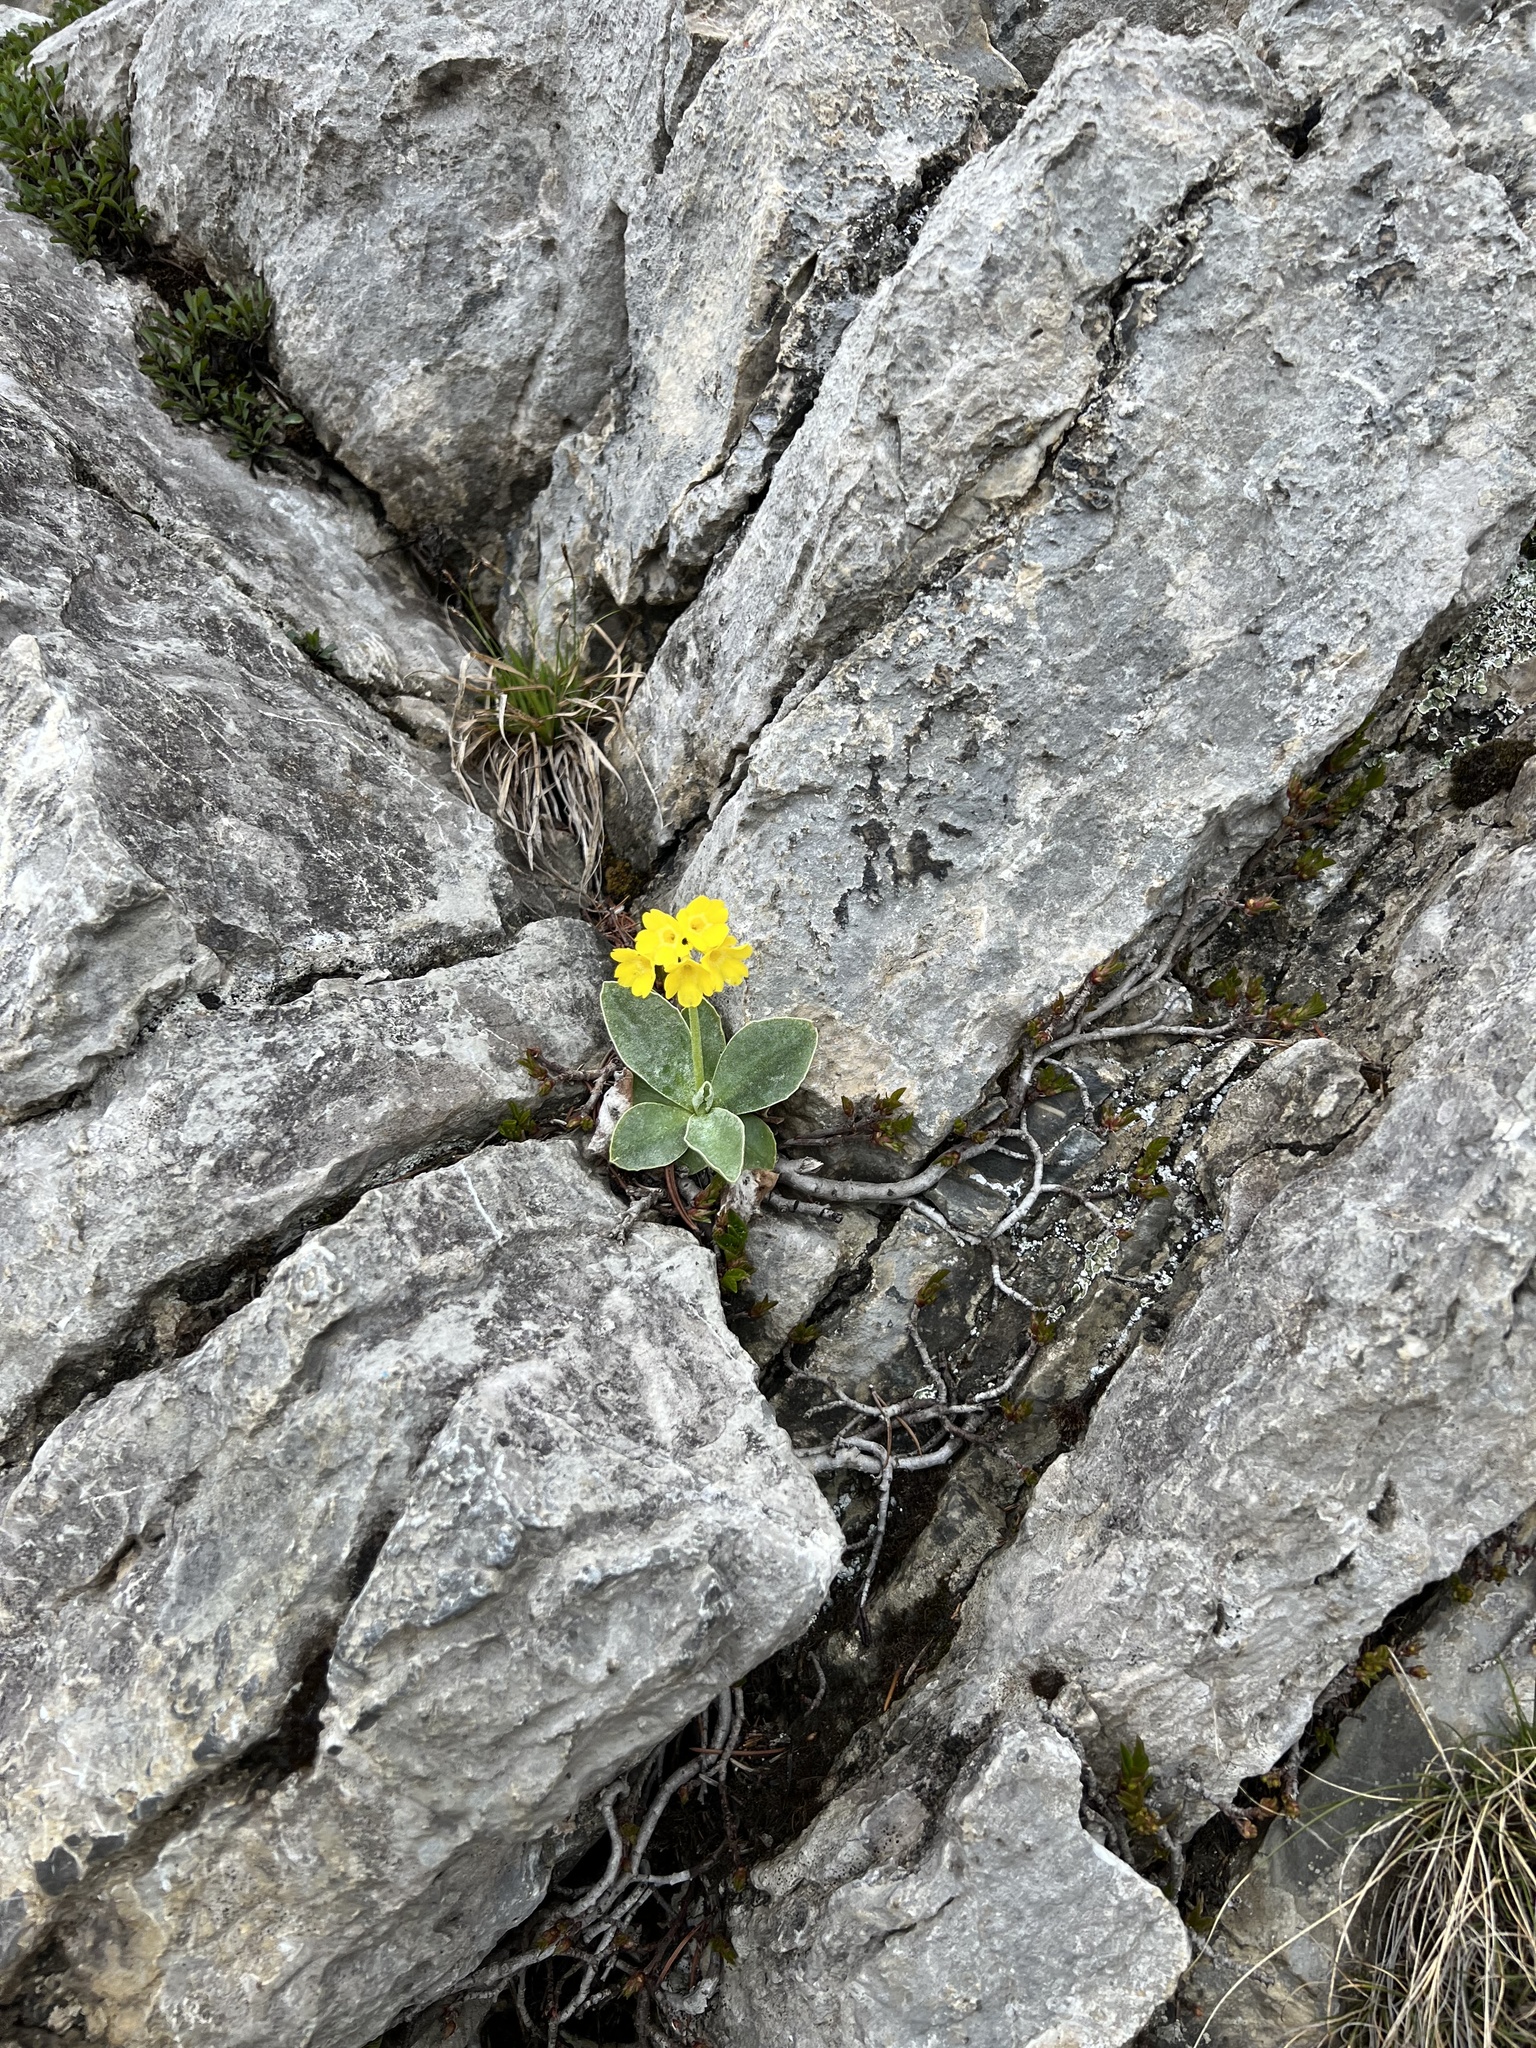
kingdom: Plantae
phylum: Tracheophyta
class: Magnoliopsida
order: Ericales
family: Primulaceae
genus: Primula
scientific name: Primula auricula
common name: Auricula
